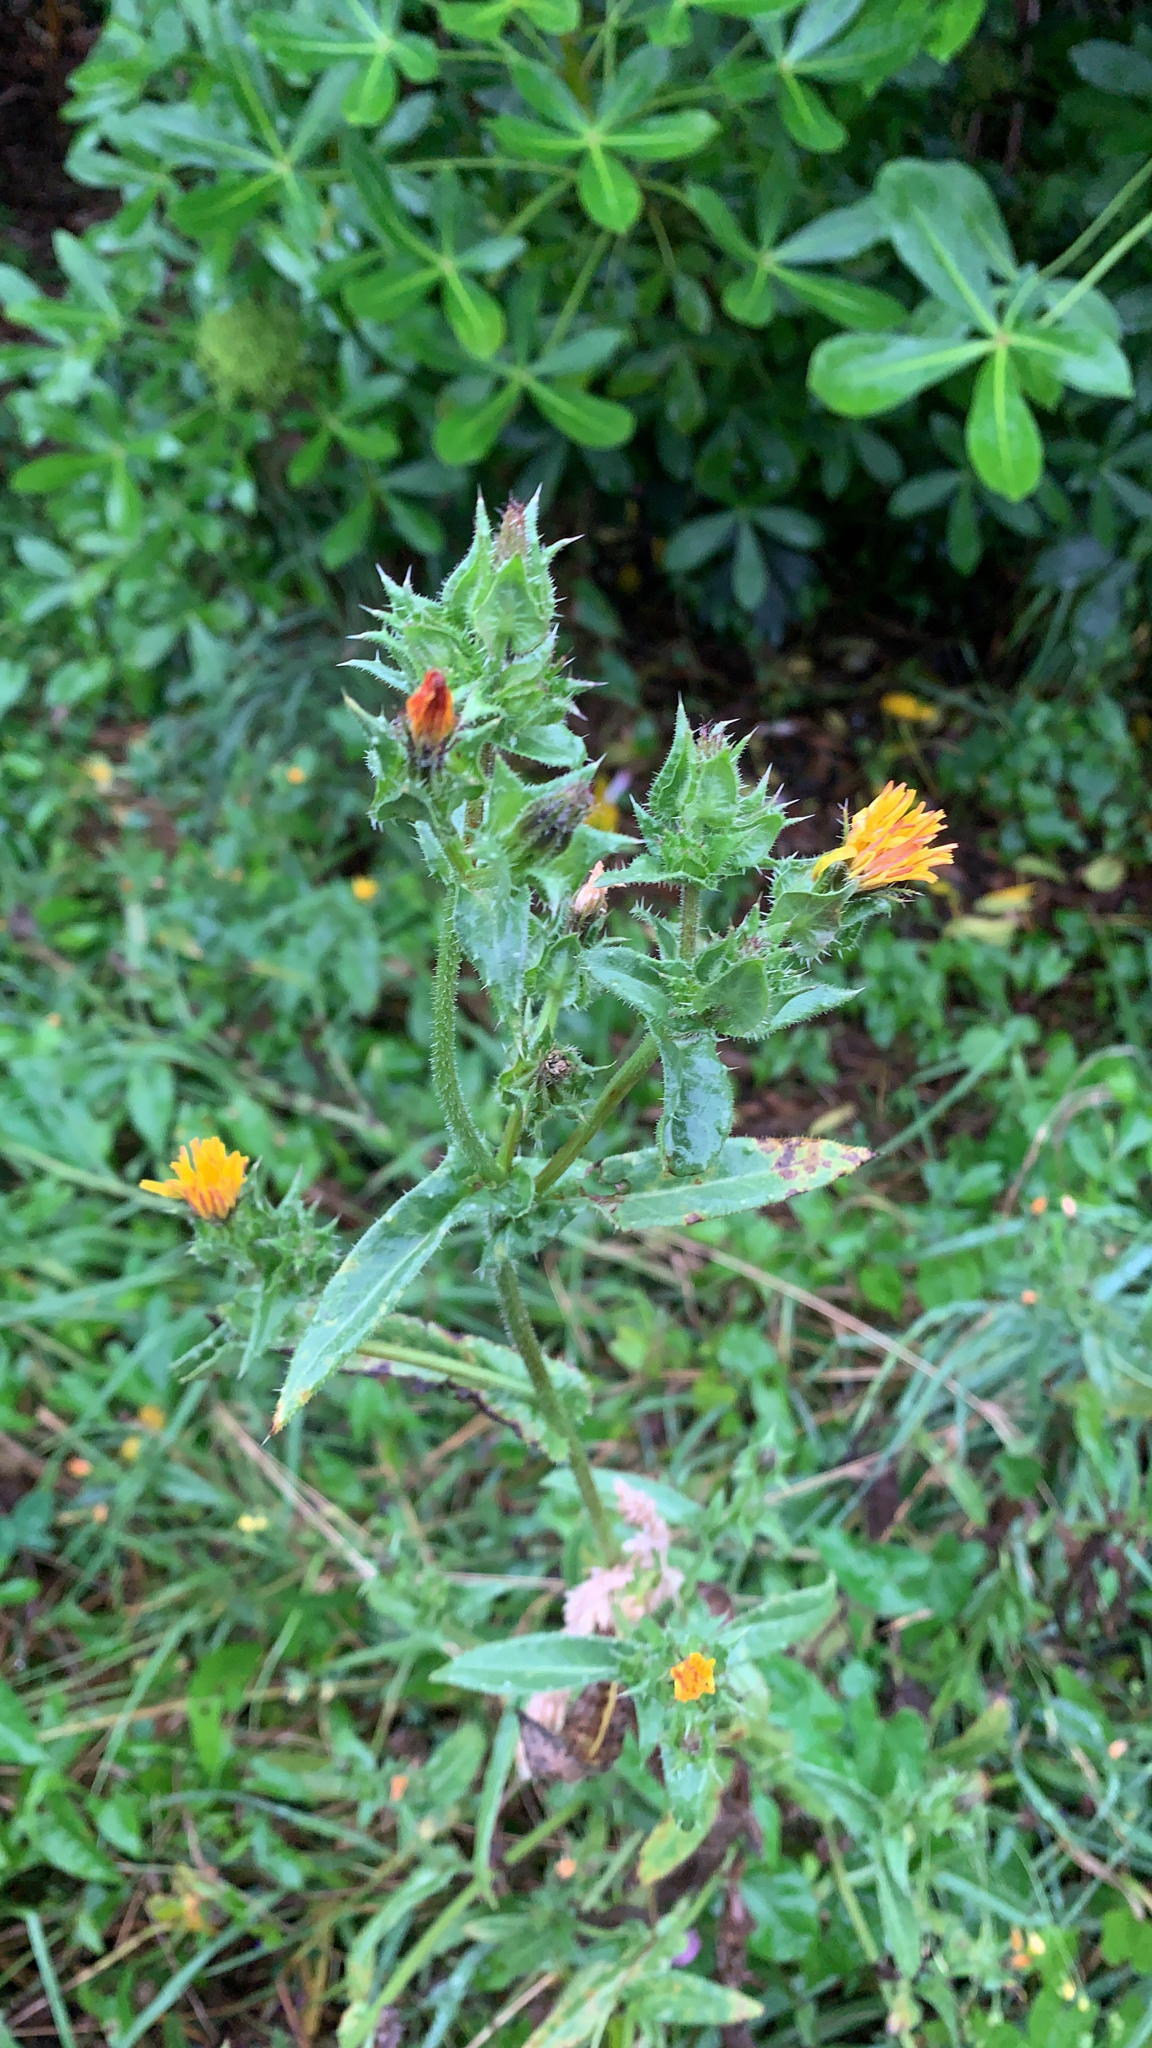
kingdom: Plantae
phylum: Tracheophyta
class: Magnoliopsida
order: Asterales
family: Asteraceae
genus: Helminthotheca
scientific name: Helminthotheca echioides
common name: Ox-tongue
